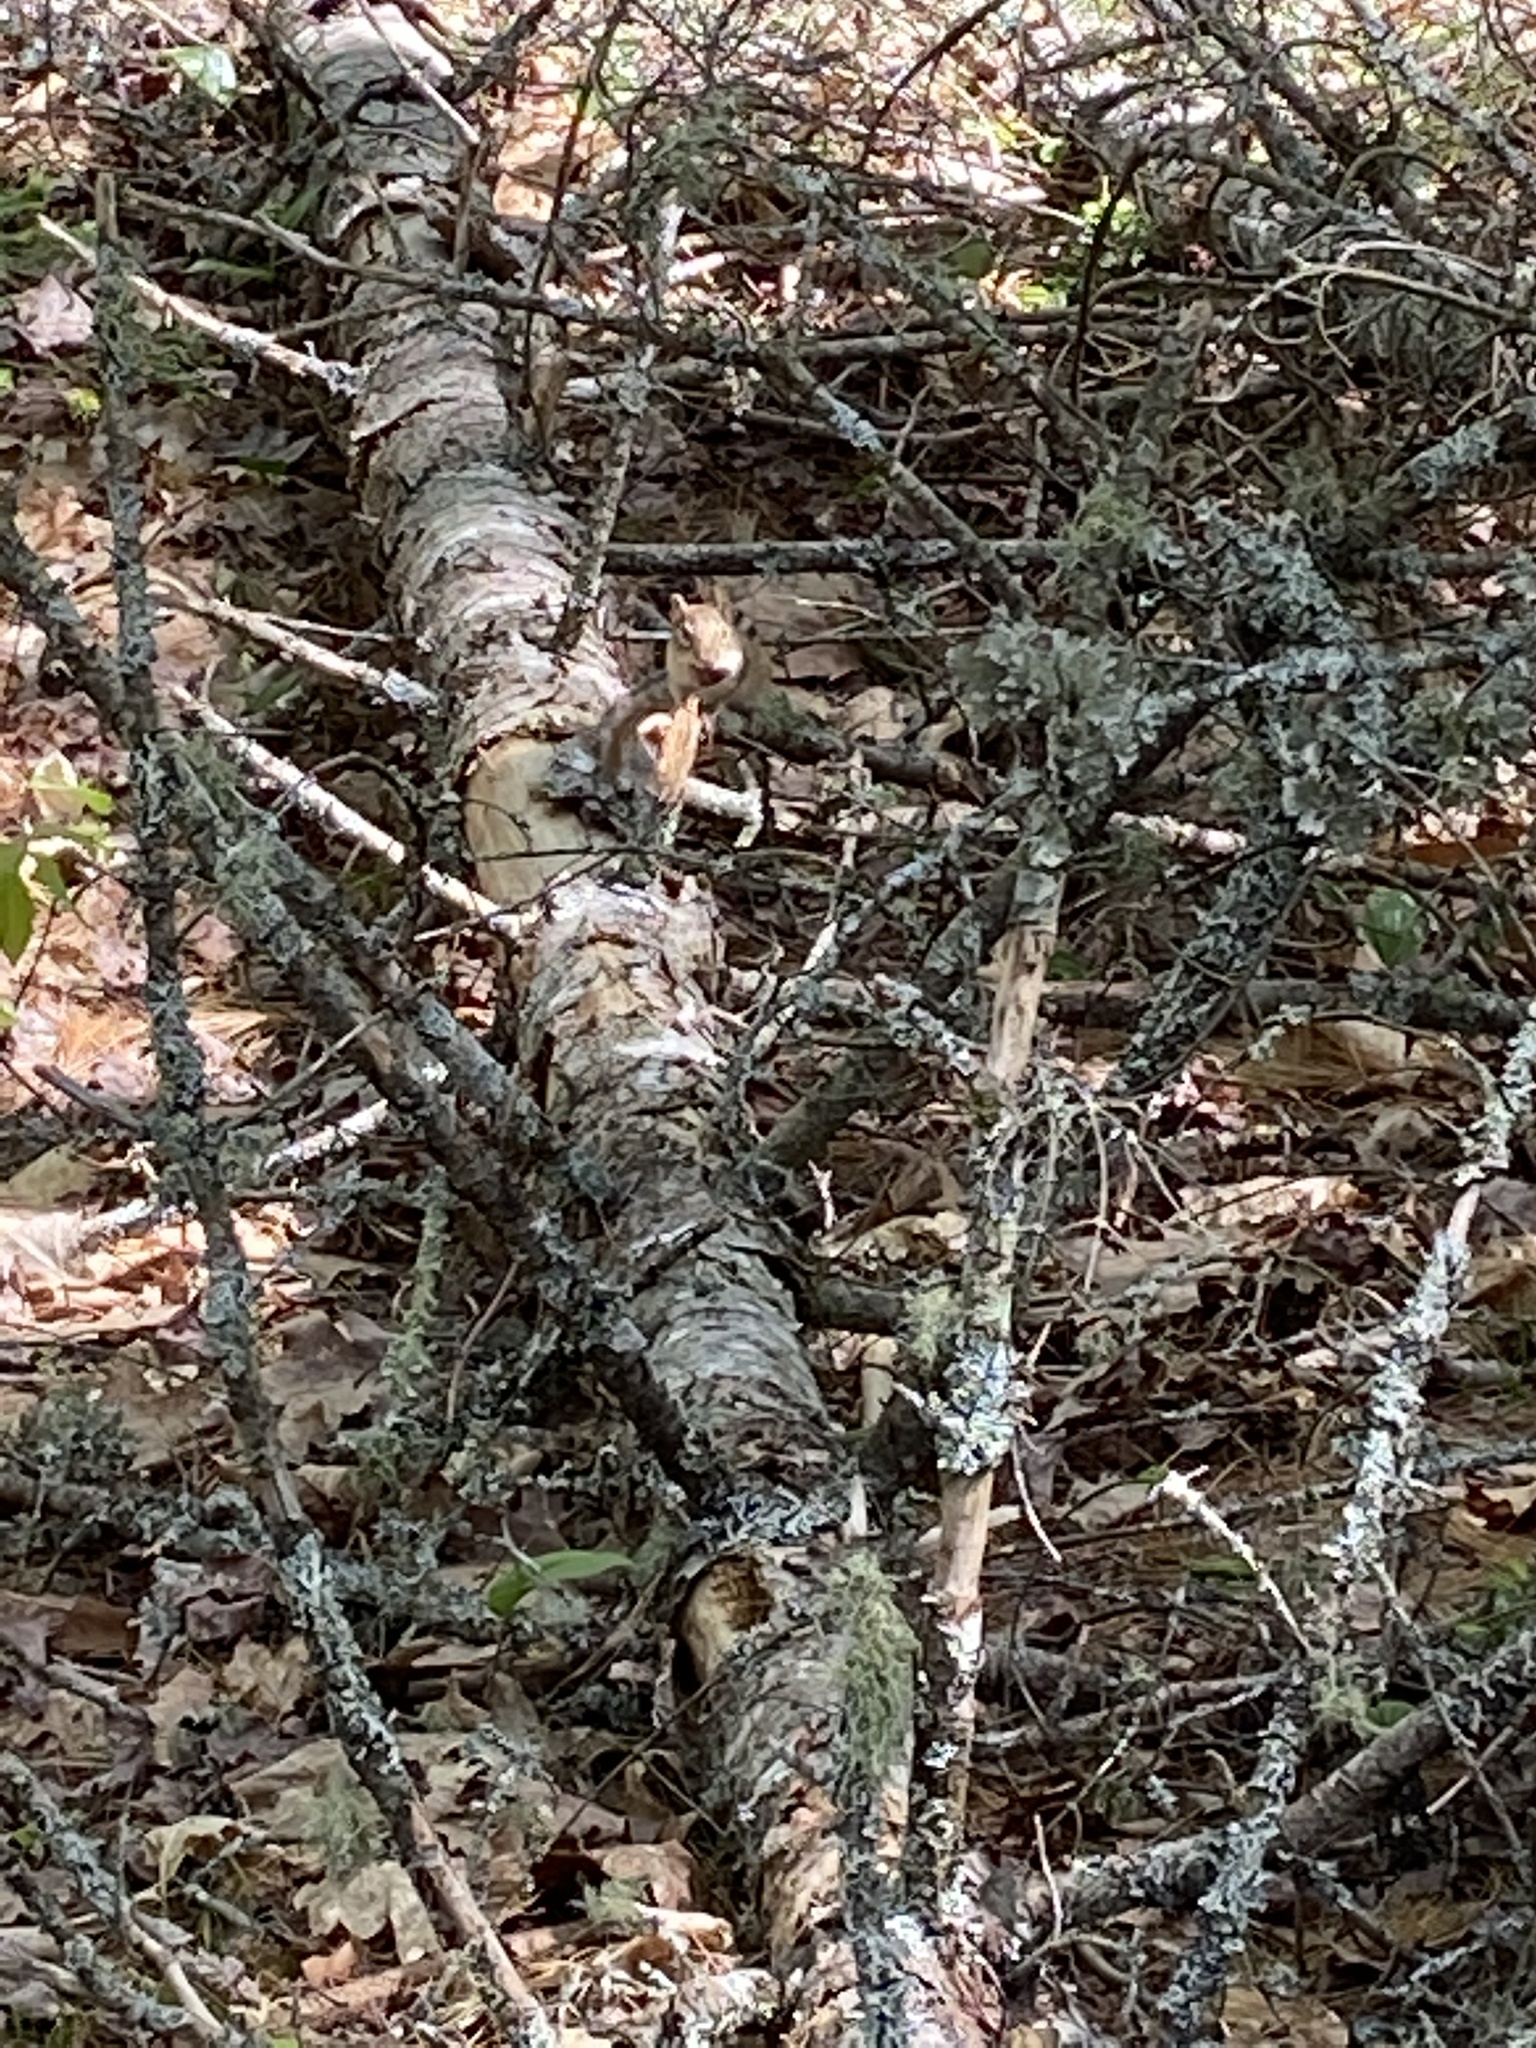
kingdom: Animalia
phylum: Chordata
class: Mammalia
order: Rodentia
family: Sciuridae
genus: Tamias
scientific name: Tamias striatus
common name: Eastern chipmunk
